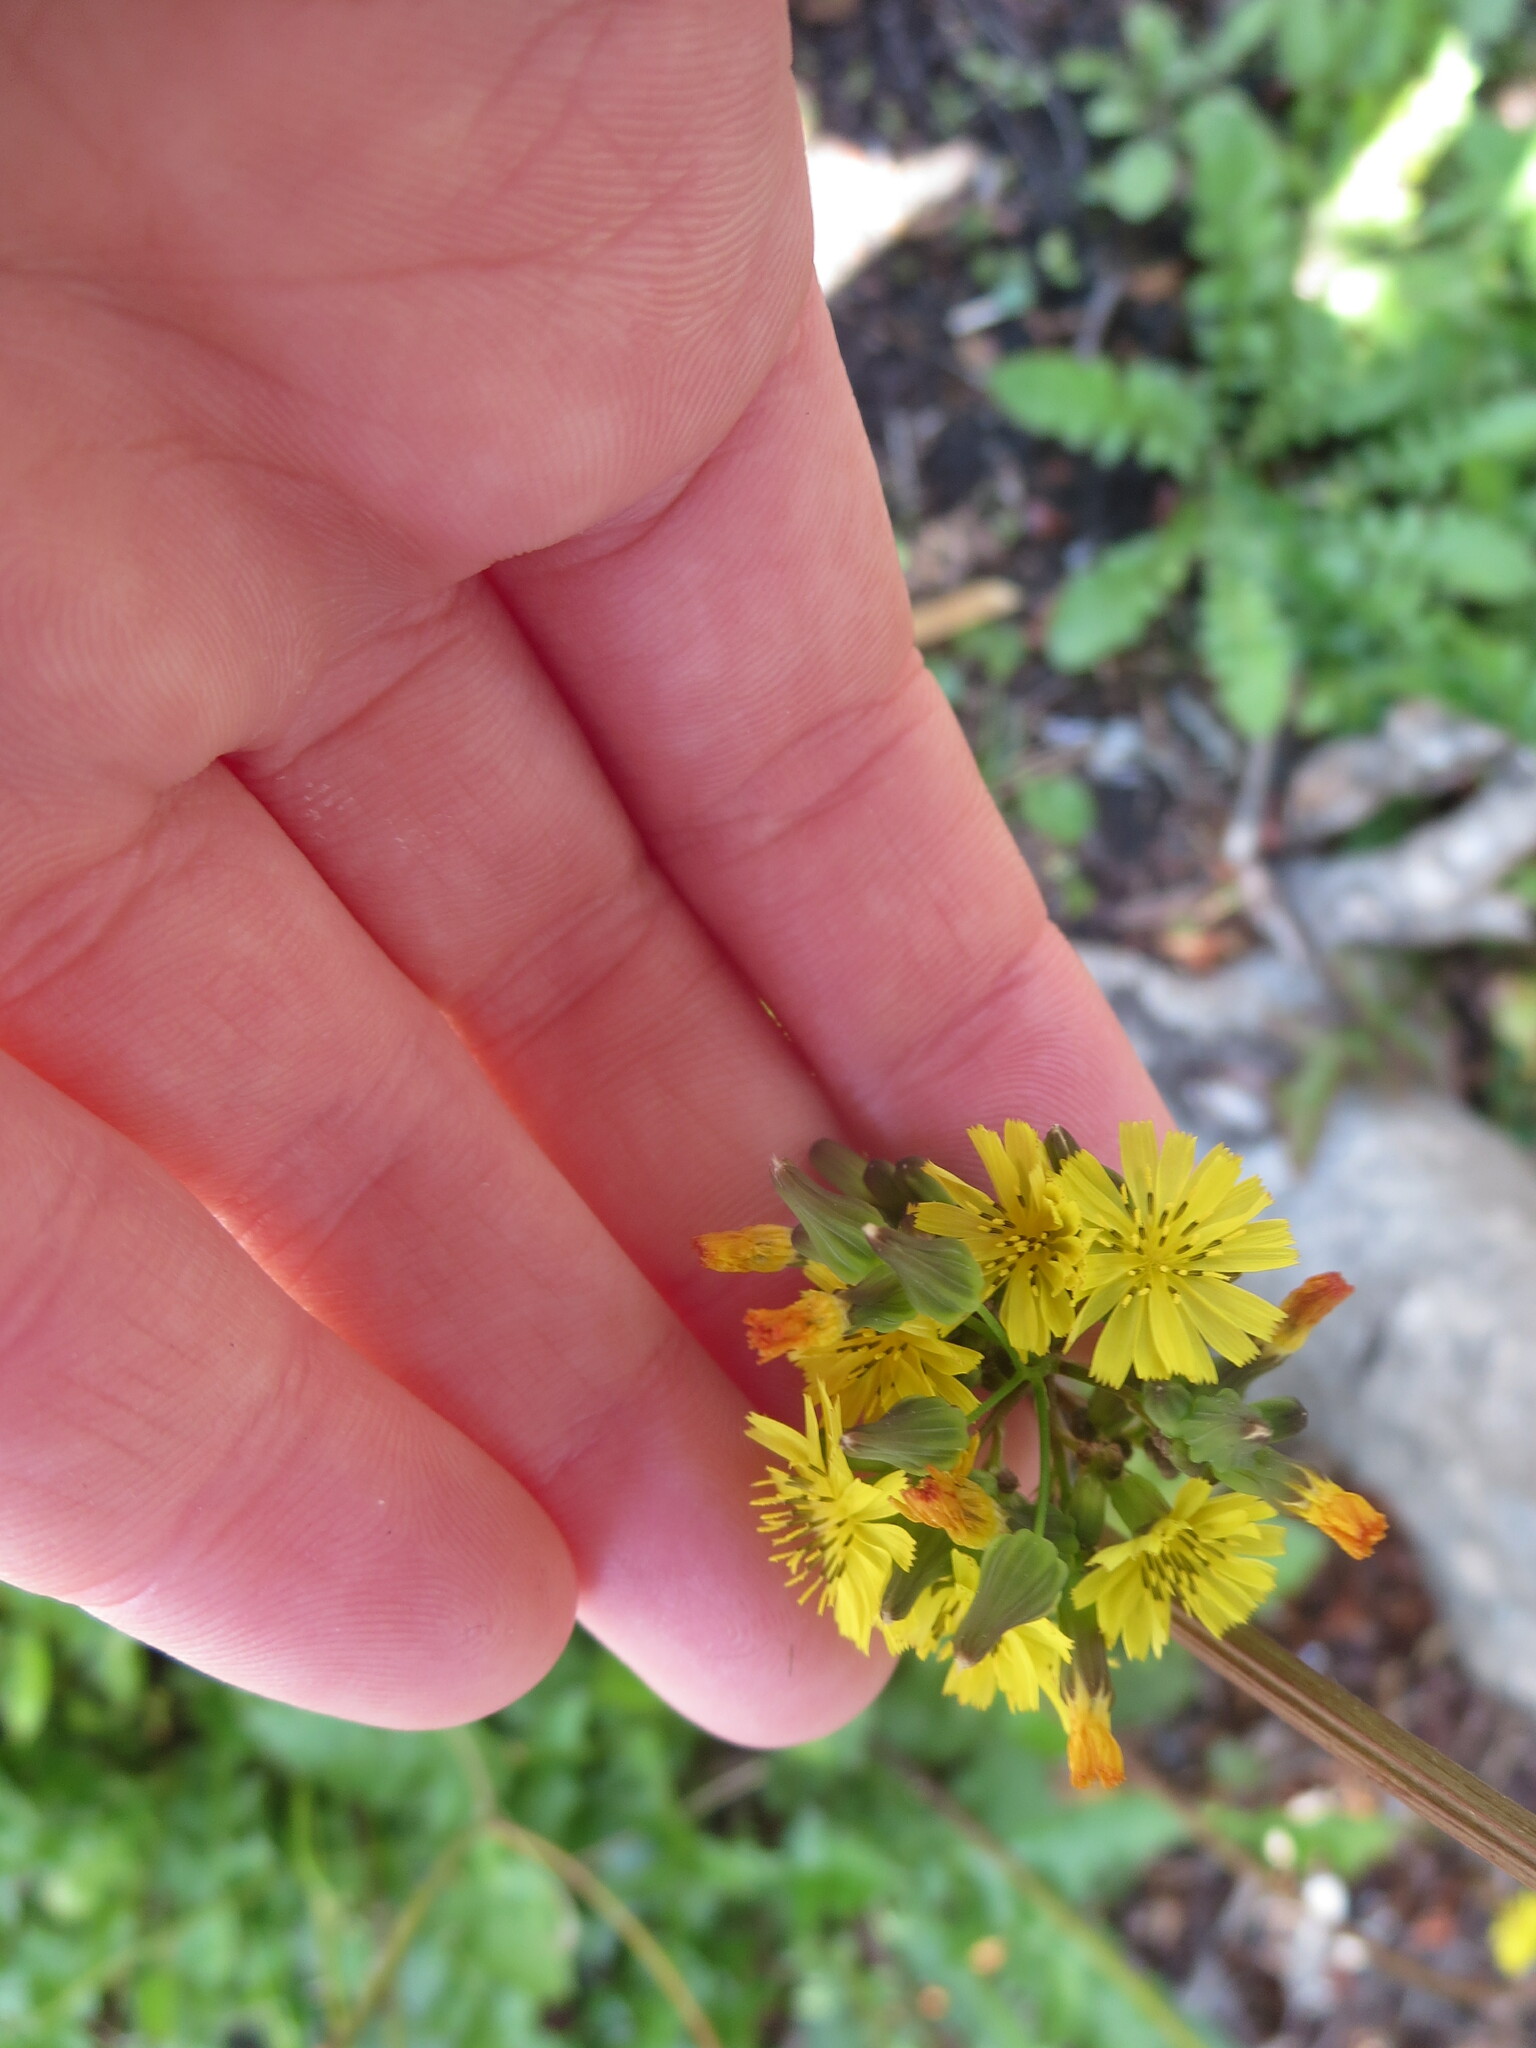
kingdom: Plantae
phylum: Tracheophyta
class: Magnoliopsida
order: Asterales
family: Asteraceae
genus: Youngia
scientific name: Youngia japonica
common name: Oriental false hawksbeard
